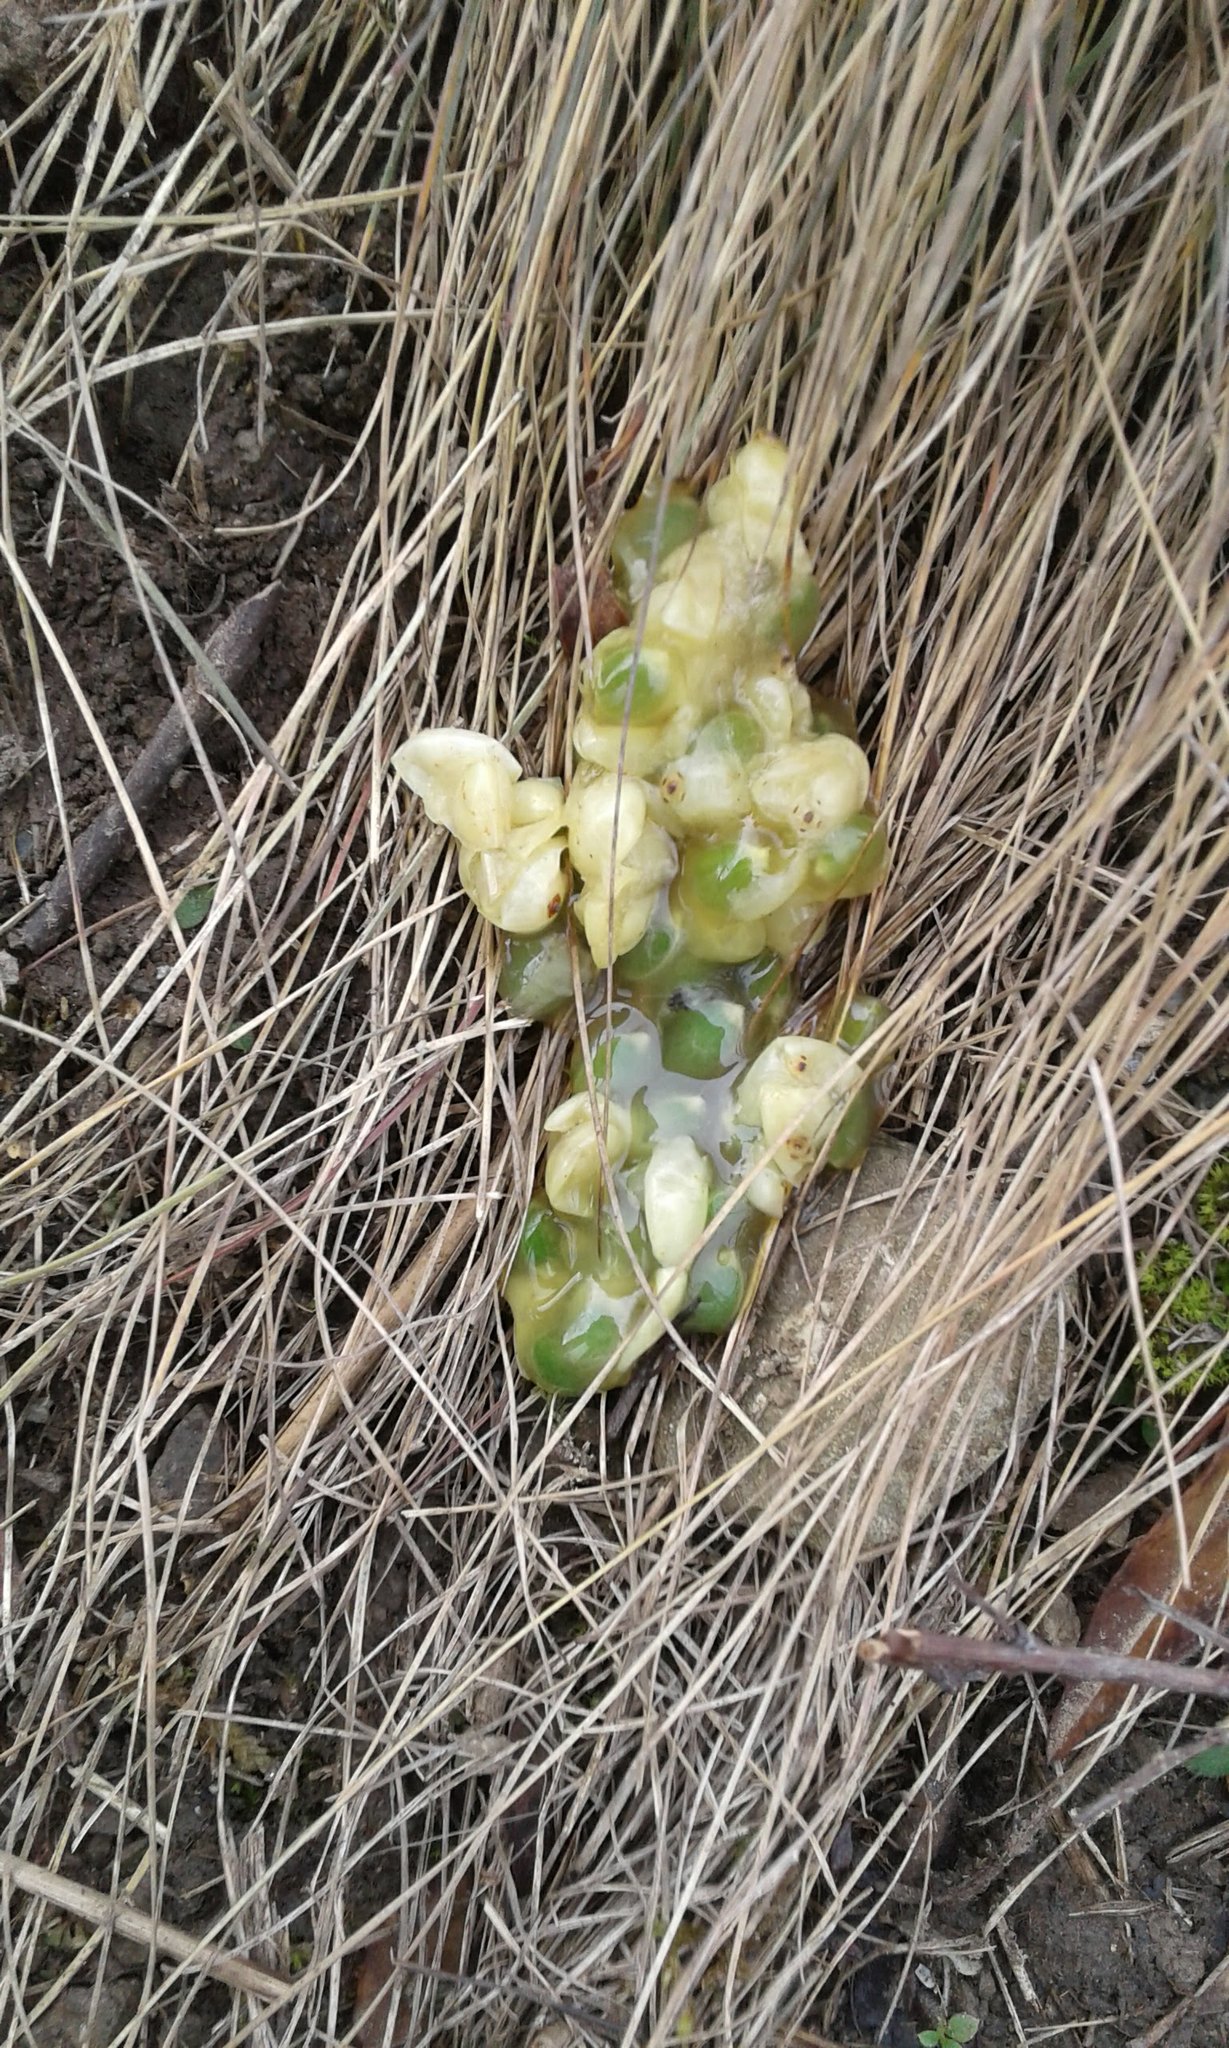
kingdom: Plantae
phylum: Tracheophyta
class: Magnoliopsida
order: Santalales
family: Viscaceae
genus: Viscum
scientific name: Viscum album
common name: Mistletoe
